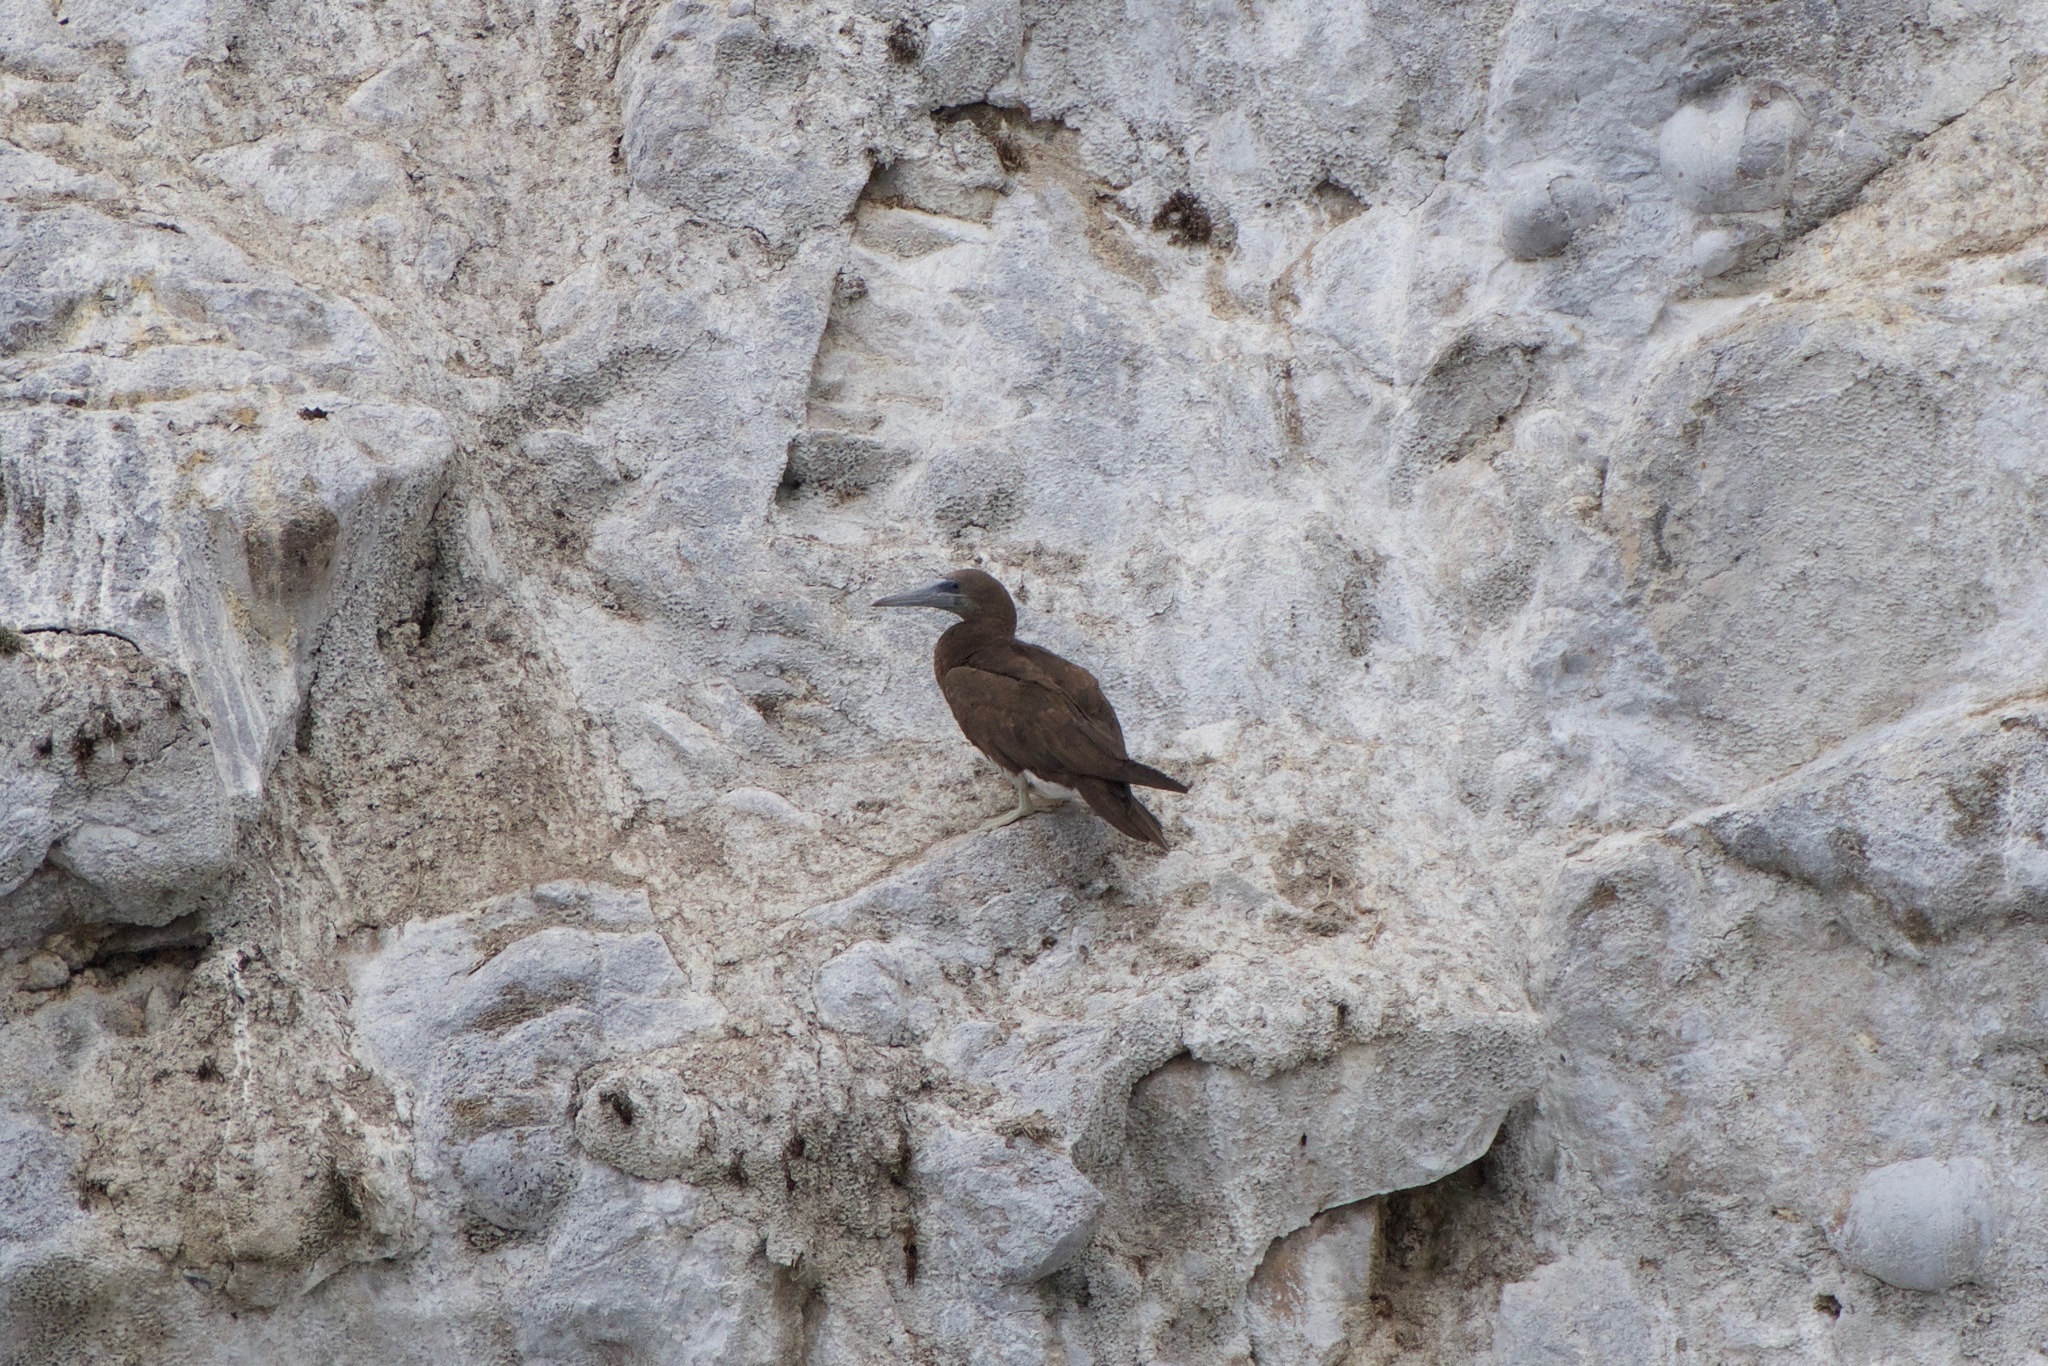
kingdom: Animalia
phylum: Chordata
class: Aves
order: Suliformes
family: Sulidae
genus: Sula
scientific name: Sula leucogaster
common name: Brown booby
